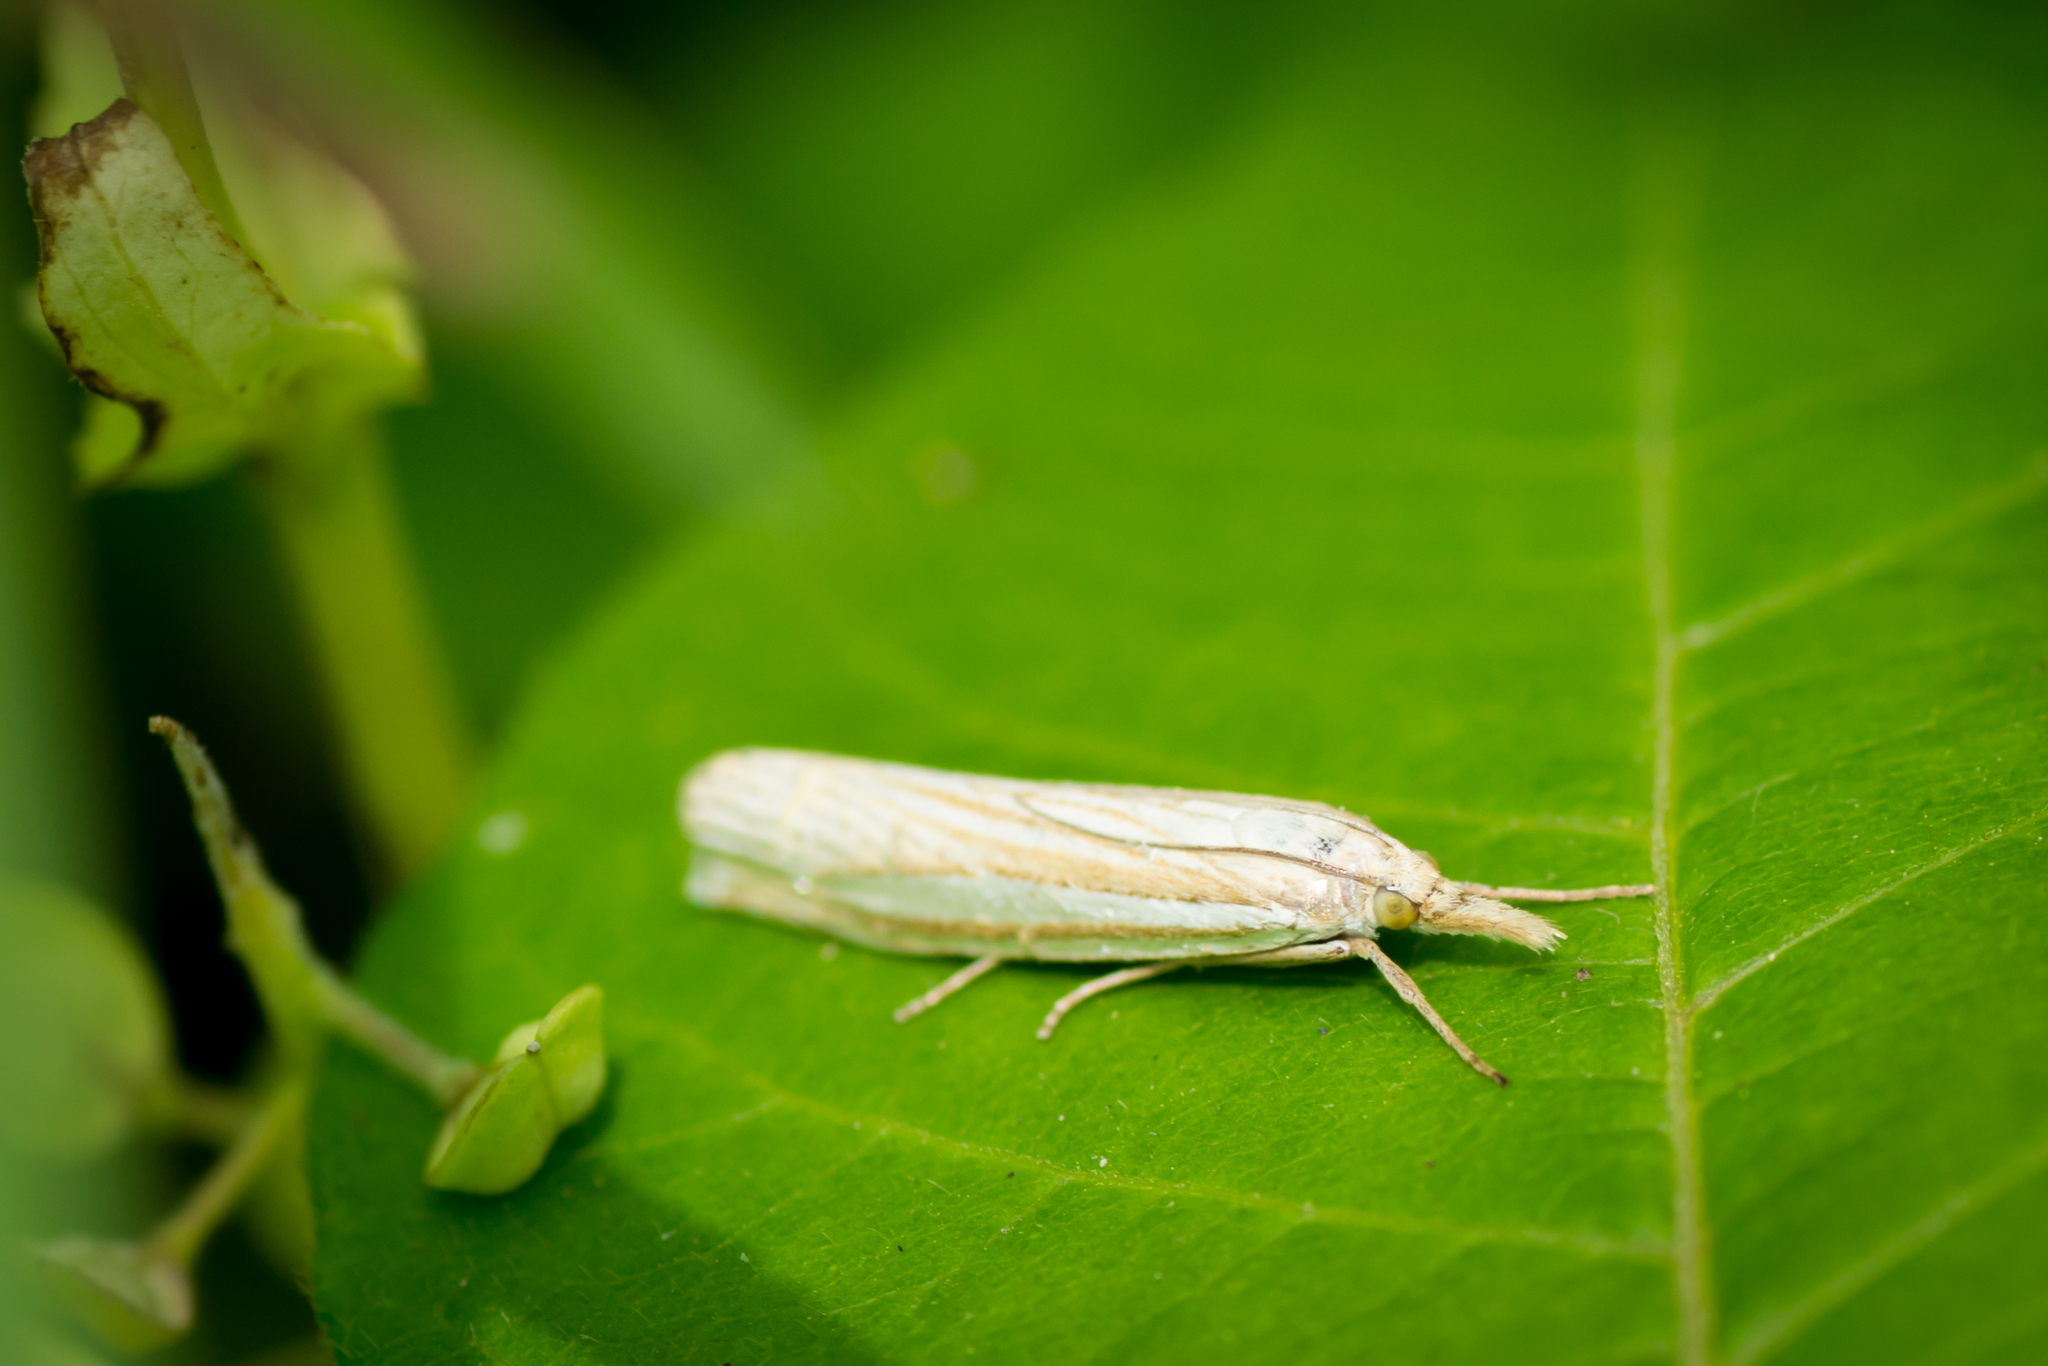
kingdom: Animalia
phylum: Arthropoda
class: Insecta
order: Lepidoptera
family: Crambidae
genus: Crambus
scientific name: Crambus laqueatellus
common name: Eastern grass-veneer
